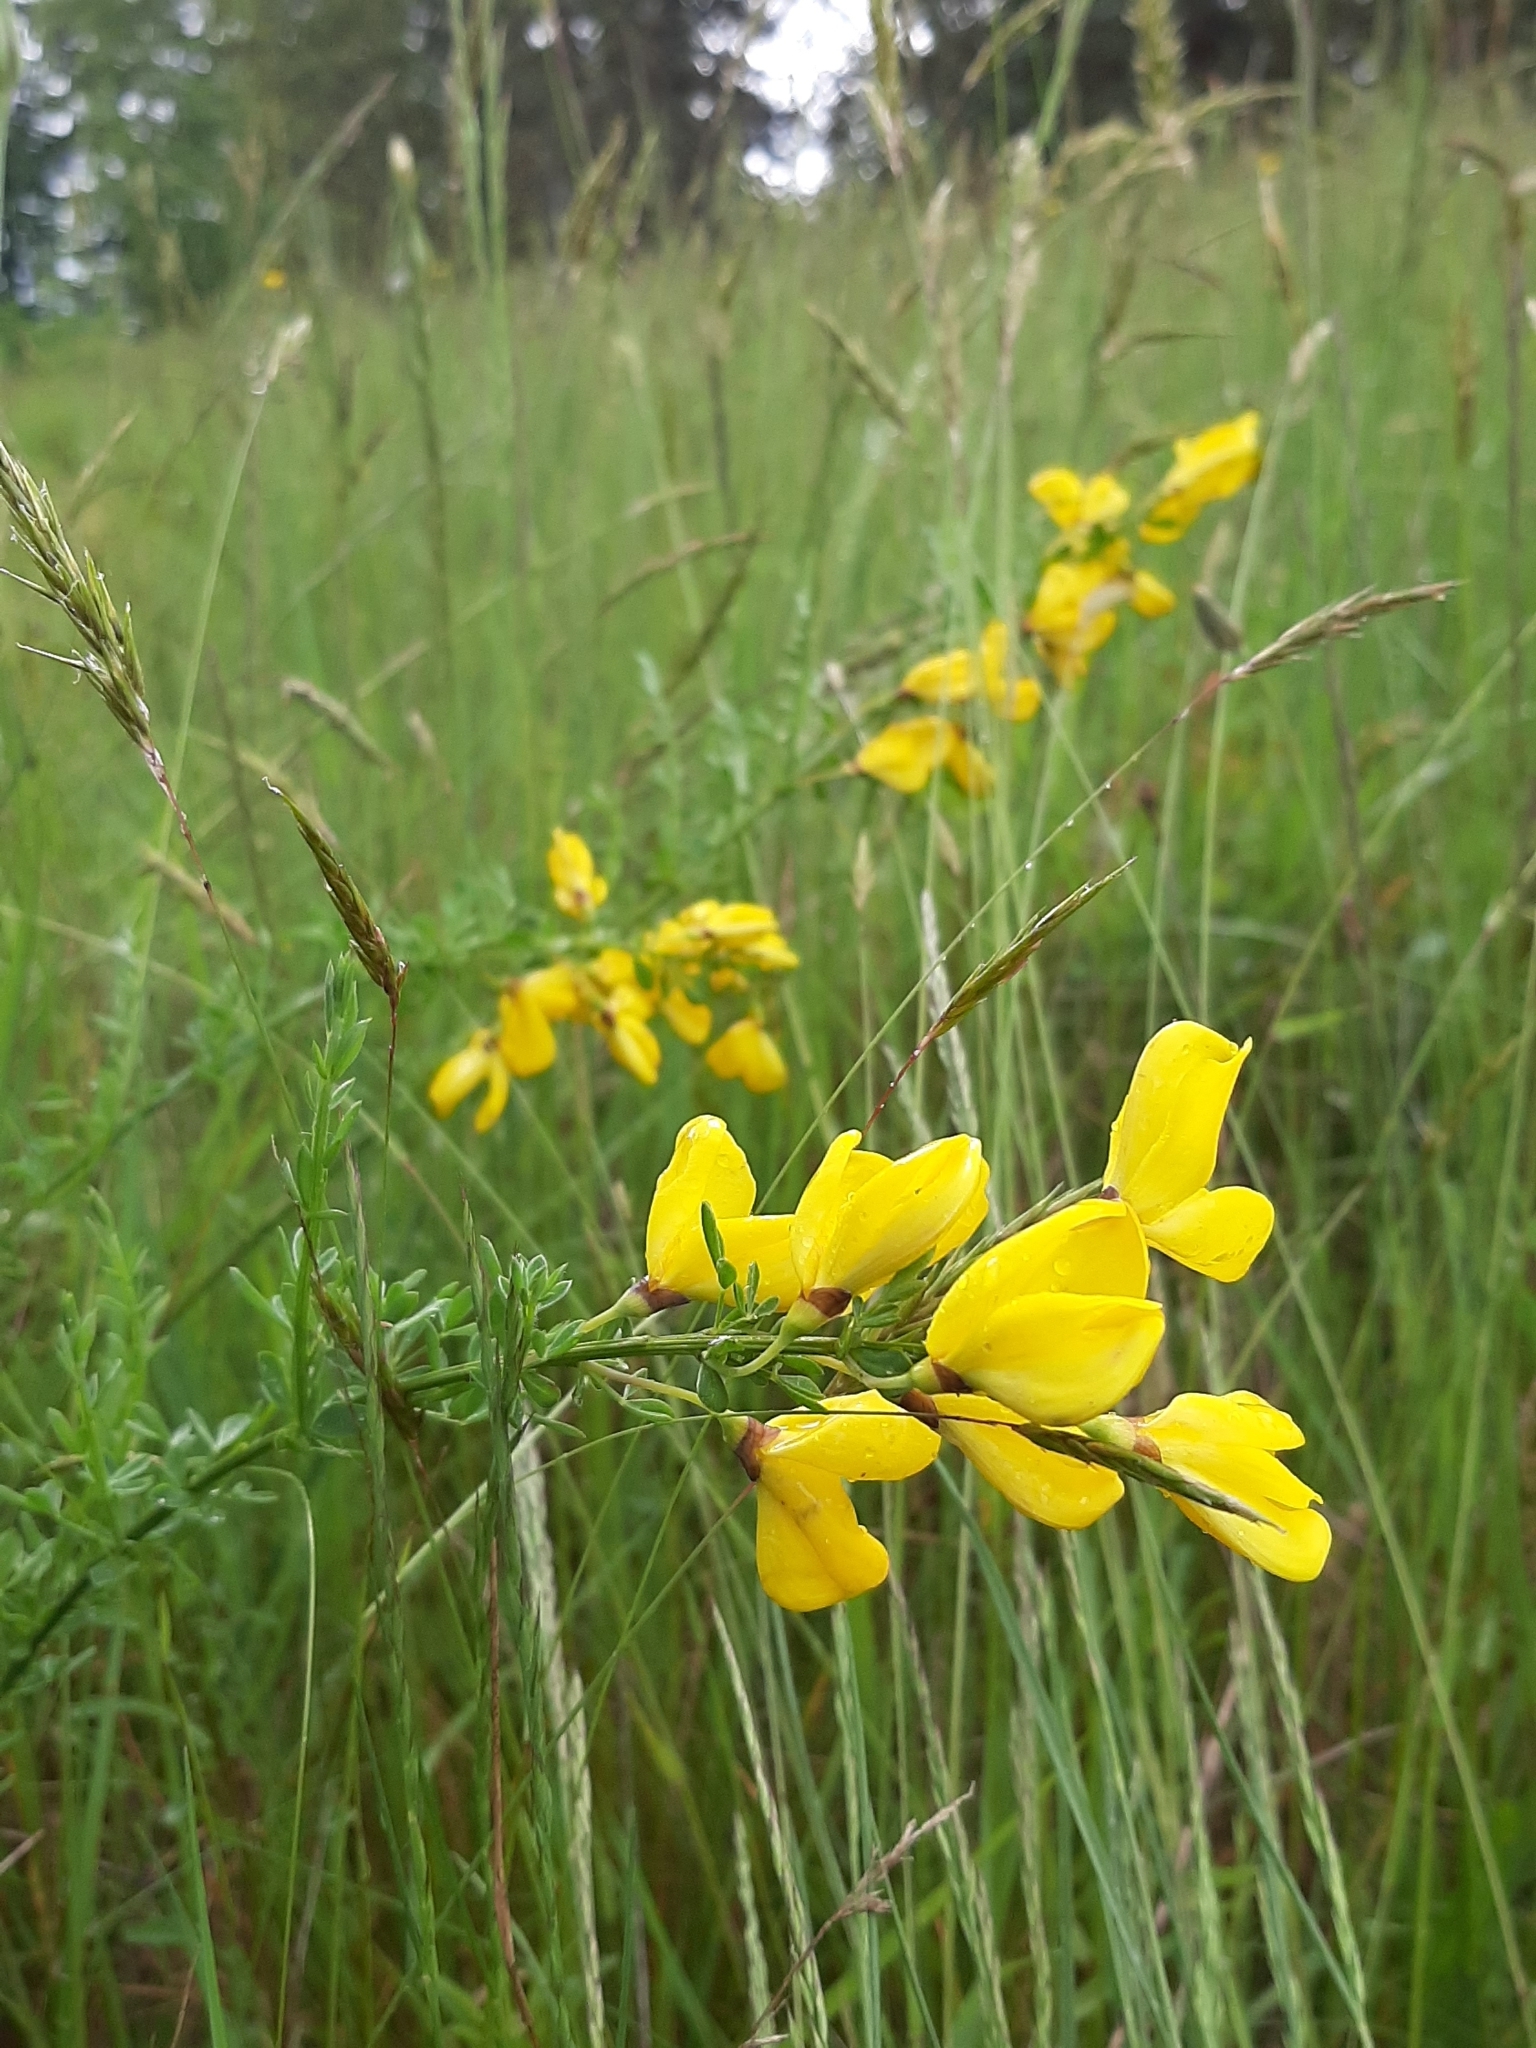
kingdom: Plantae
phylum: Tracheophyta
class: Magnoliopsida
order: Fabales
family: Fabaceae
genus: Cytisus
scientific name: Cytisus scoparius
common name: Scotch broom
